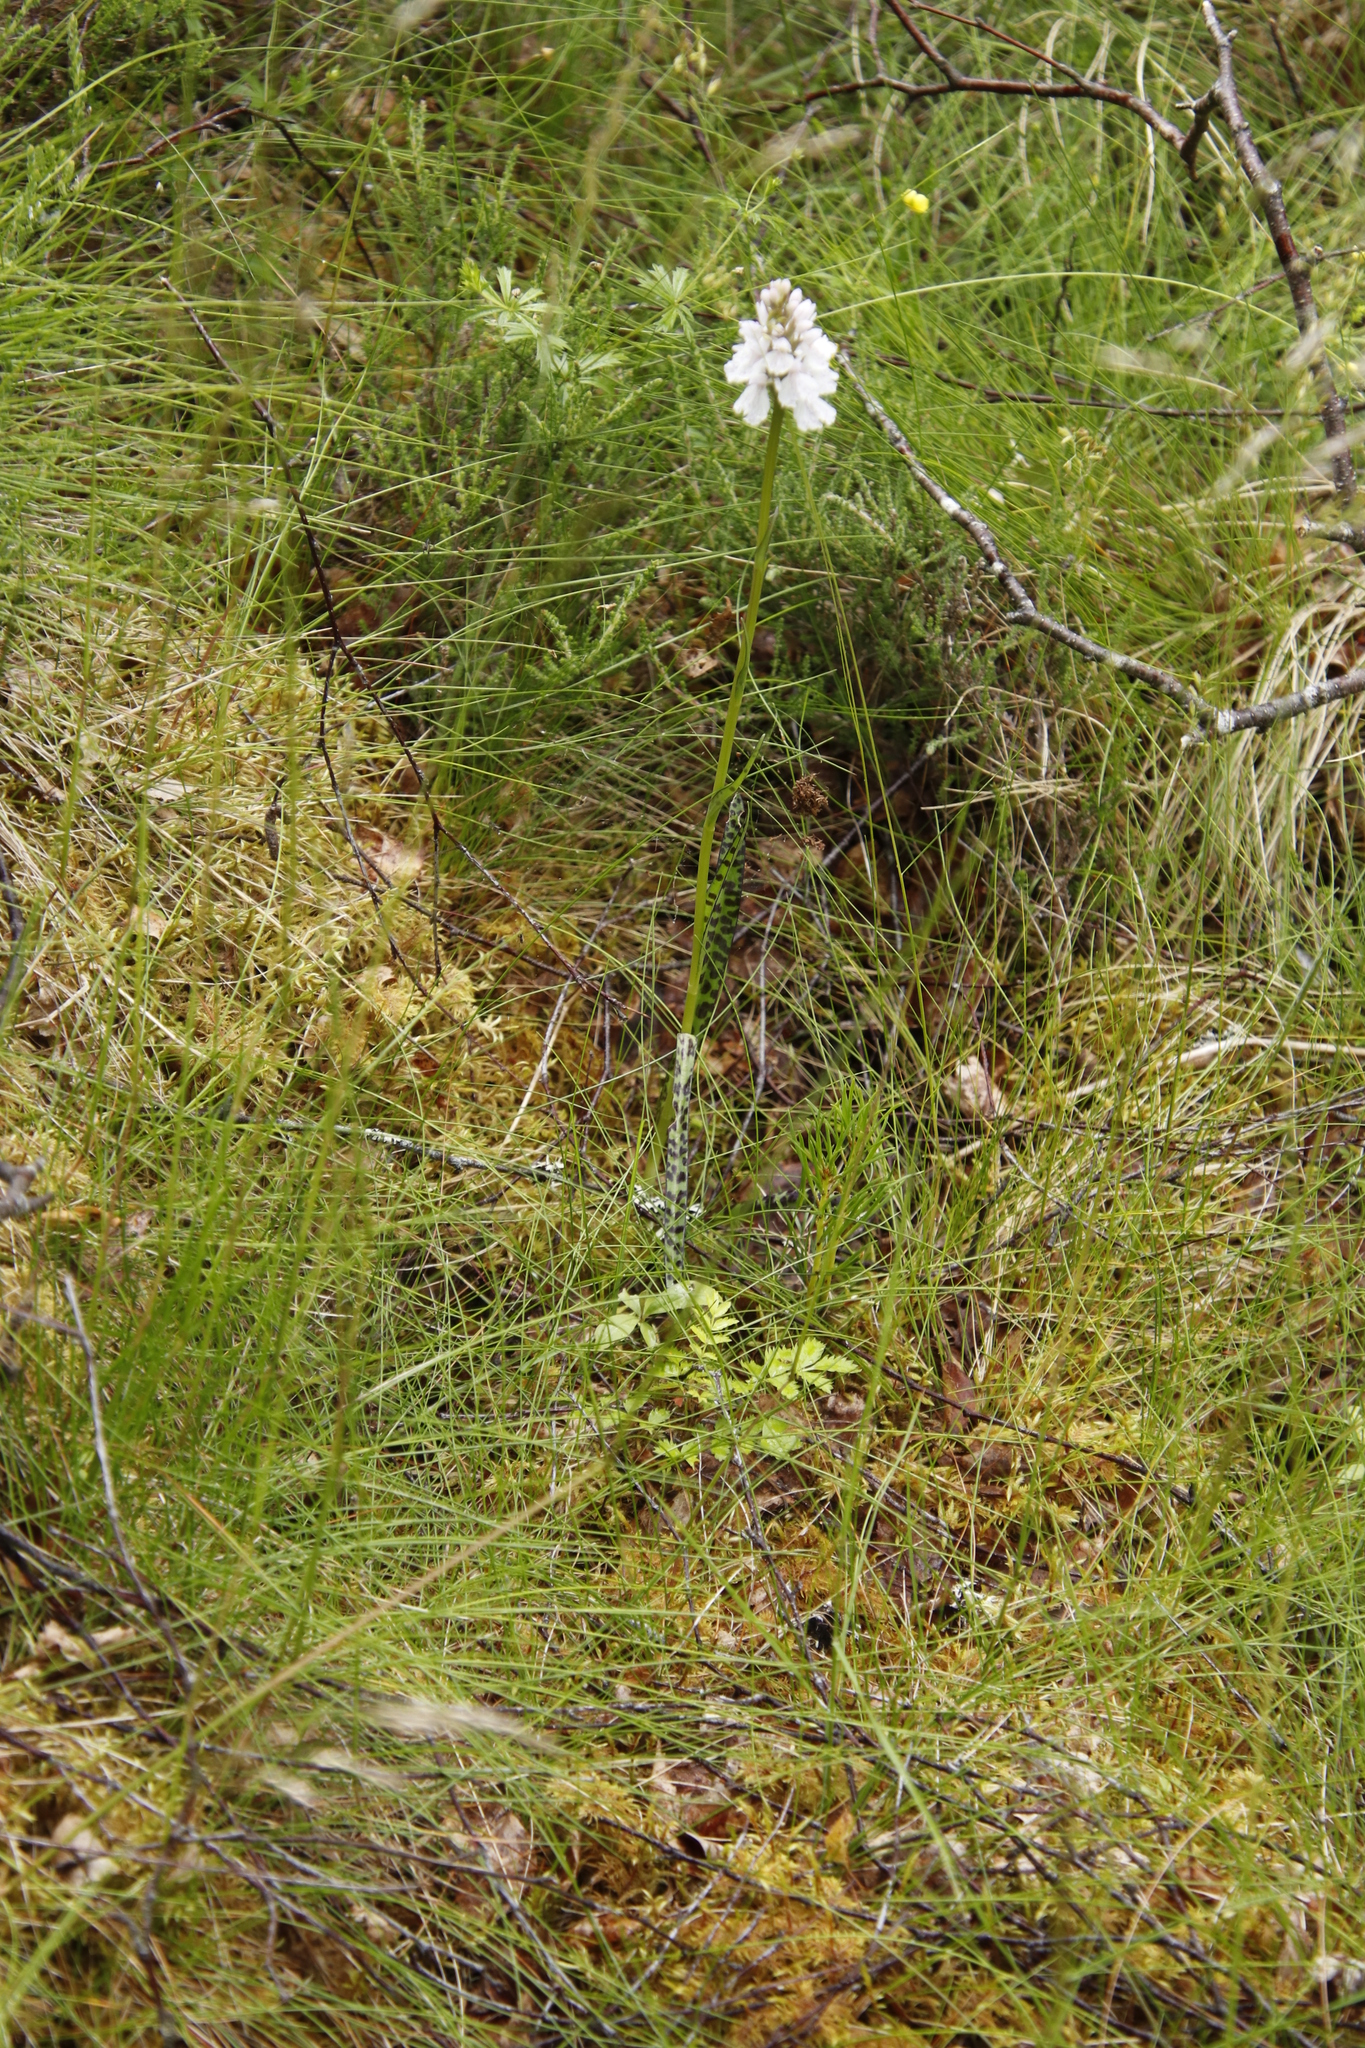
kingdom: Plantae
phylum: Tracheophyta
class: Liliopsida
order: Asparagales
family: Orchidaceae
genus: Dactylorhiza
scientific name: Dactylorhiza maculata
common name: Heath spotted-orchid
